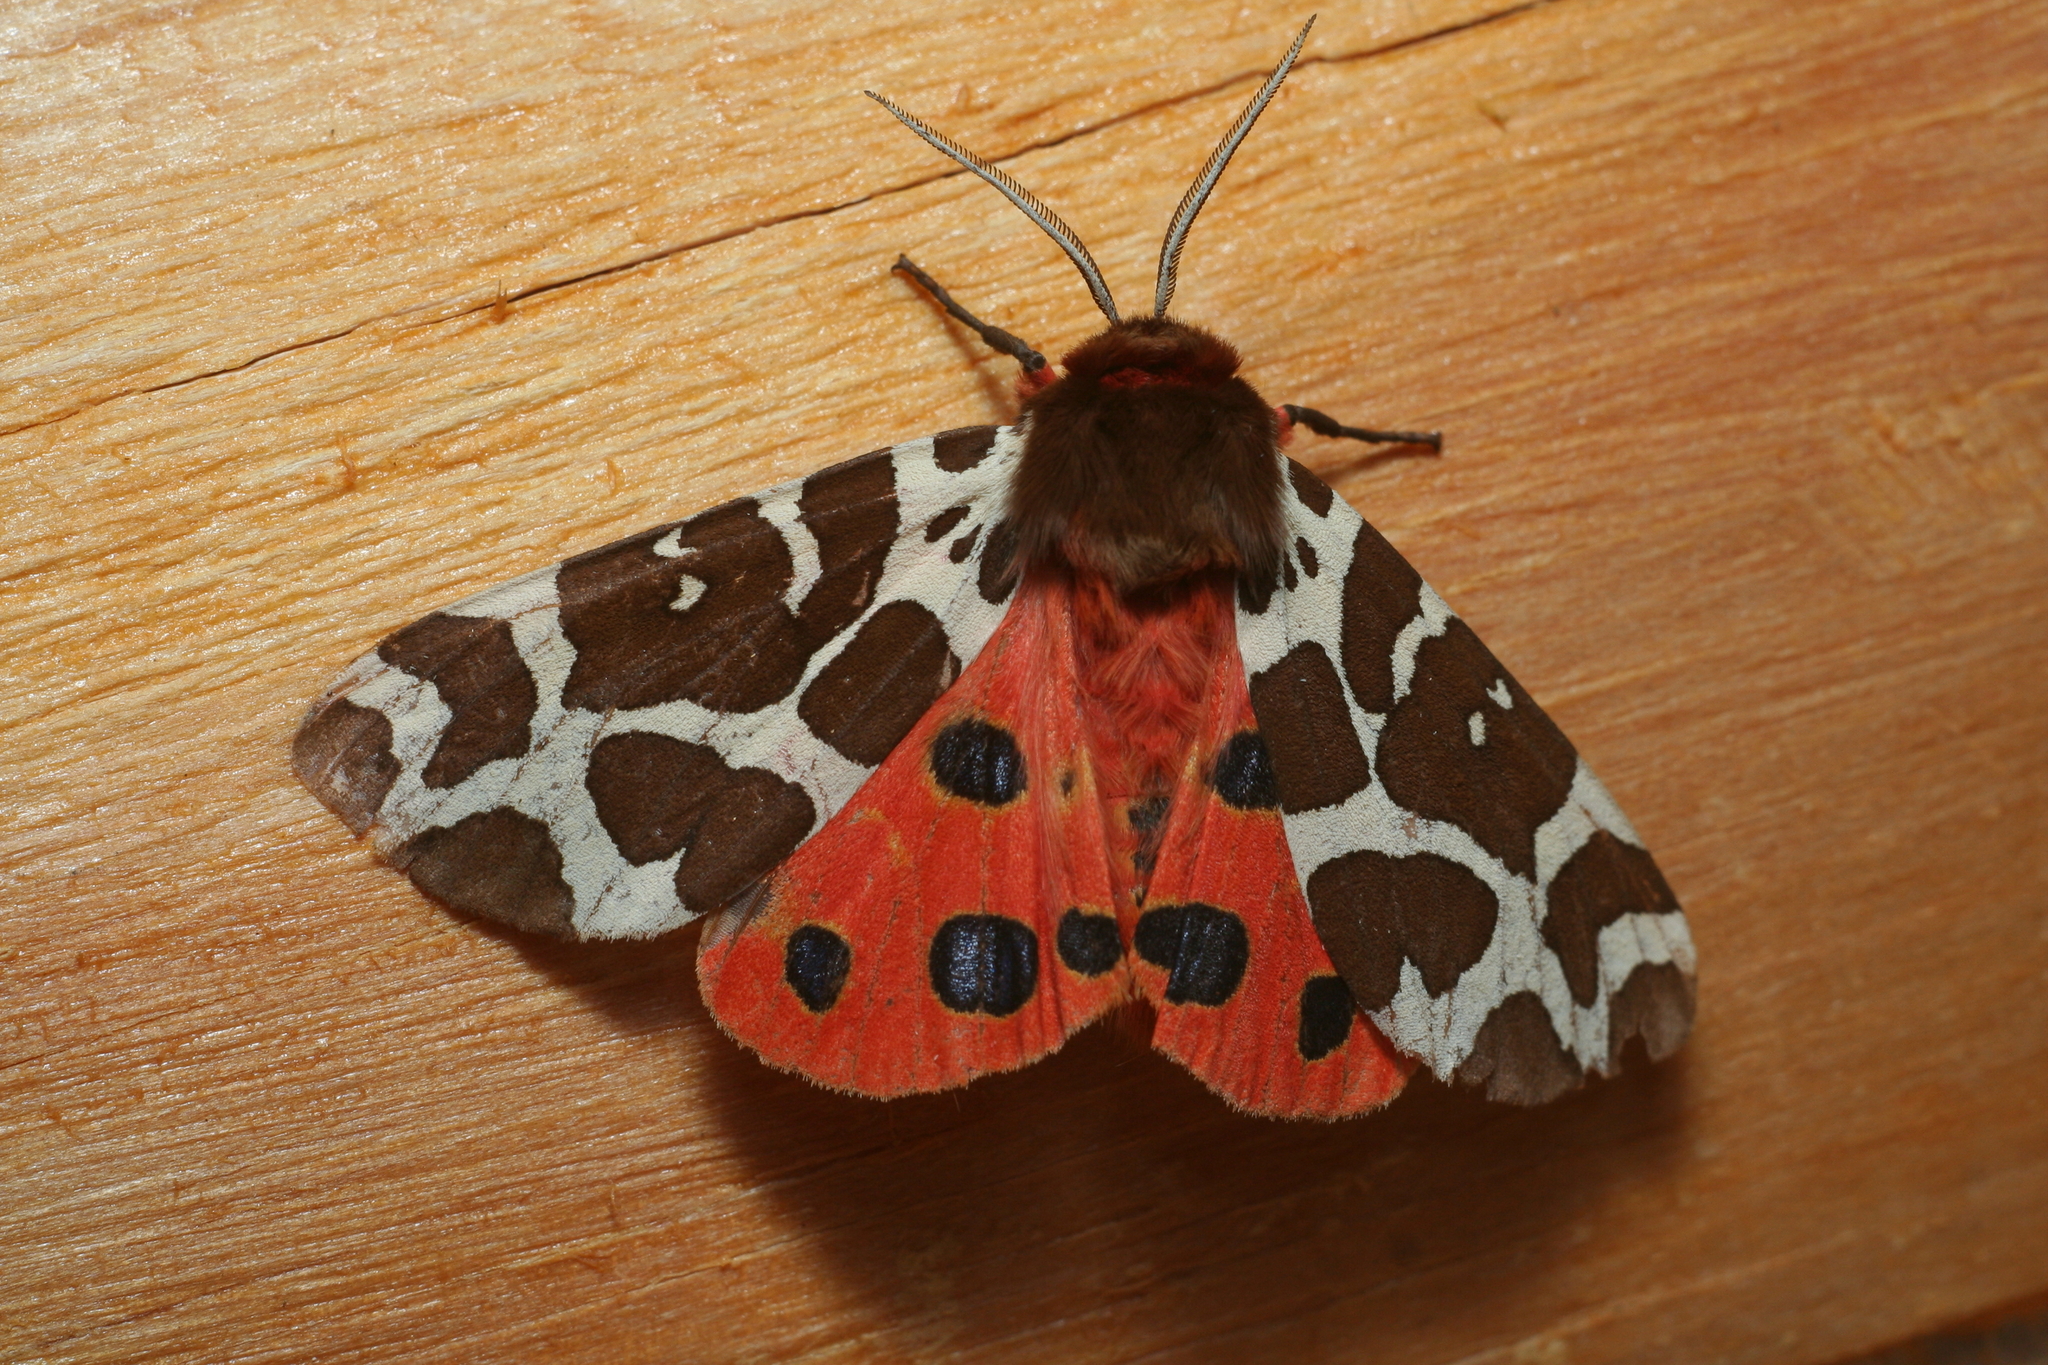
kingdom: Animalia
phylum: Arthropoda
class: Insecta
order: Lepidoptera
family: Erebidae
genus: Arctia
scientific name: Arctia caja
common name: Garden tiger
